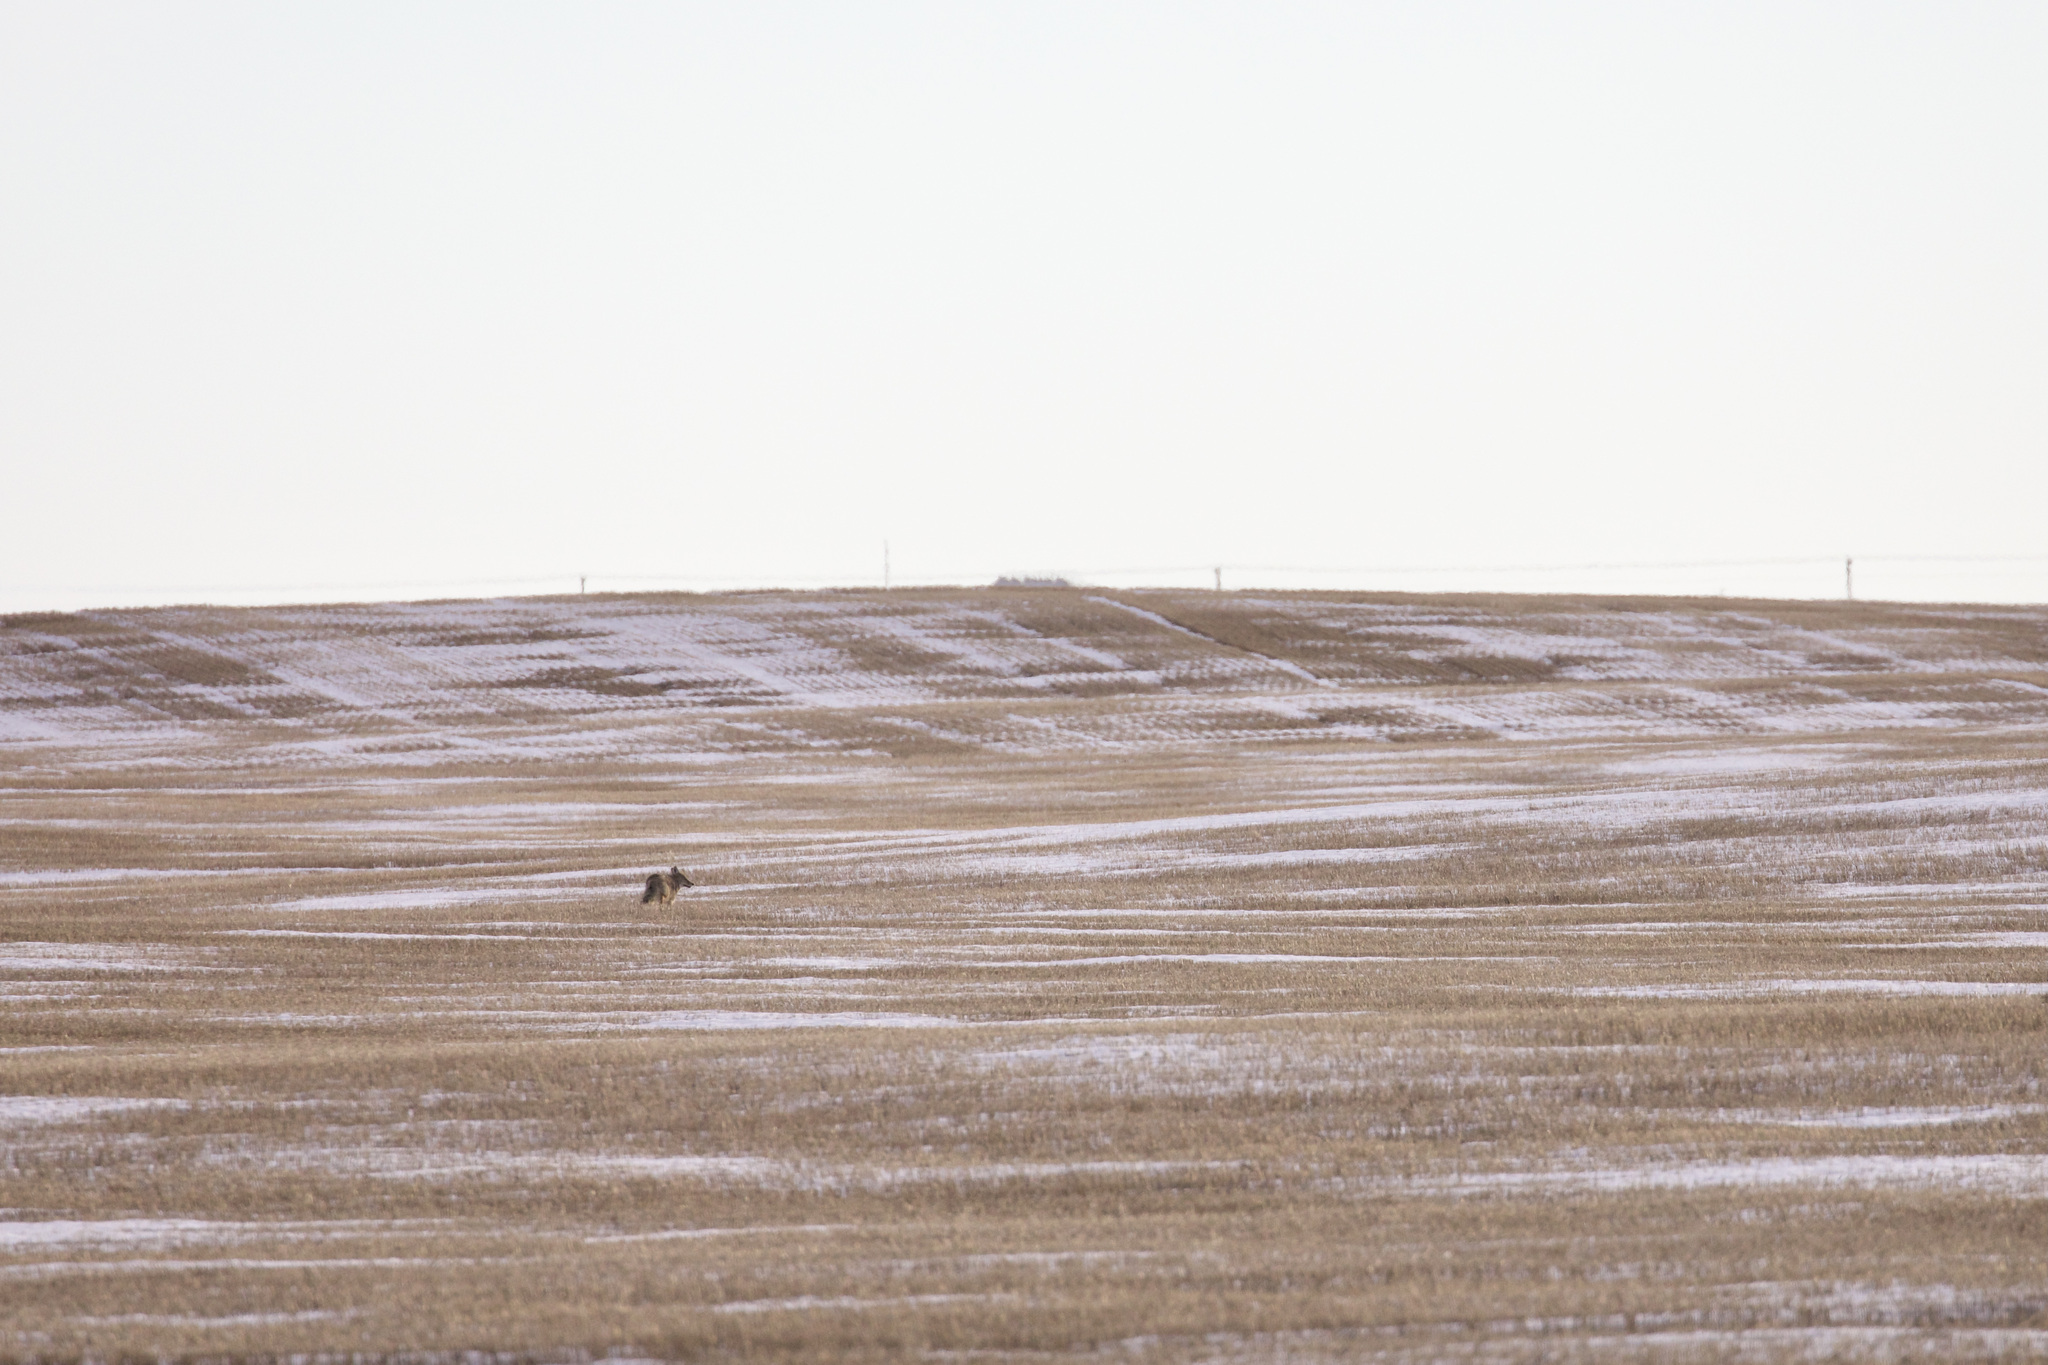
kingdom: Animalia
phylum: Chordata
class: Mammalia
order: Carnivora
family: Canidae
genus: Canis
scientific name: Canis latrans
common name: Coyote
